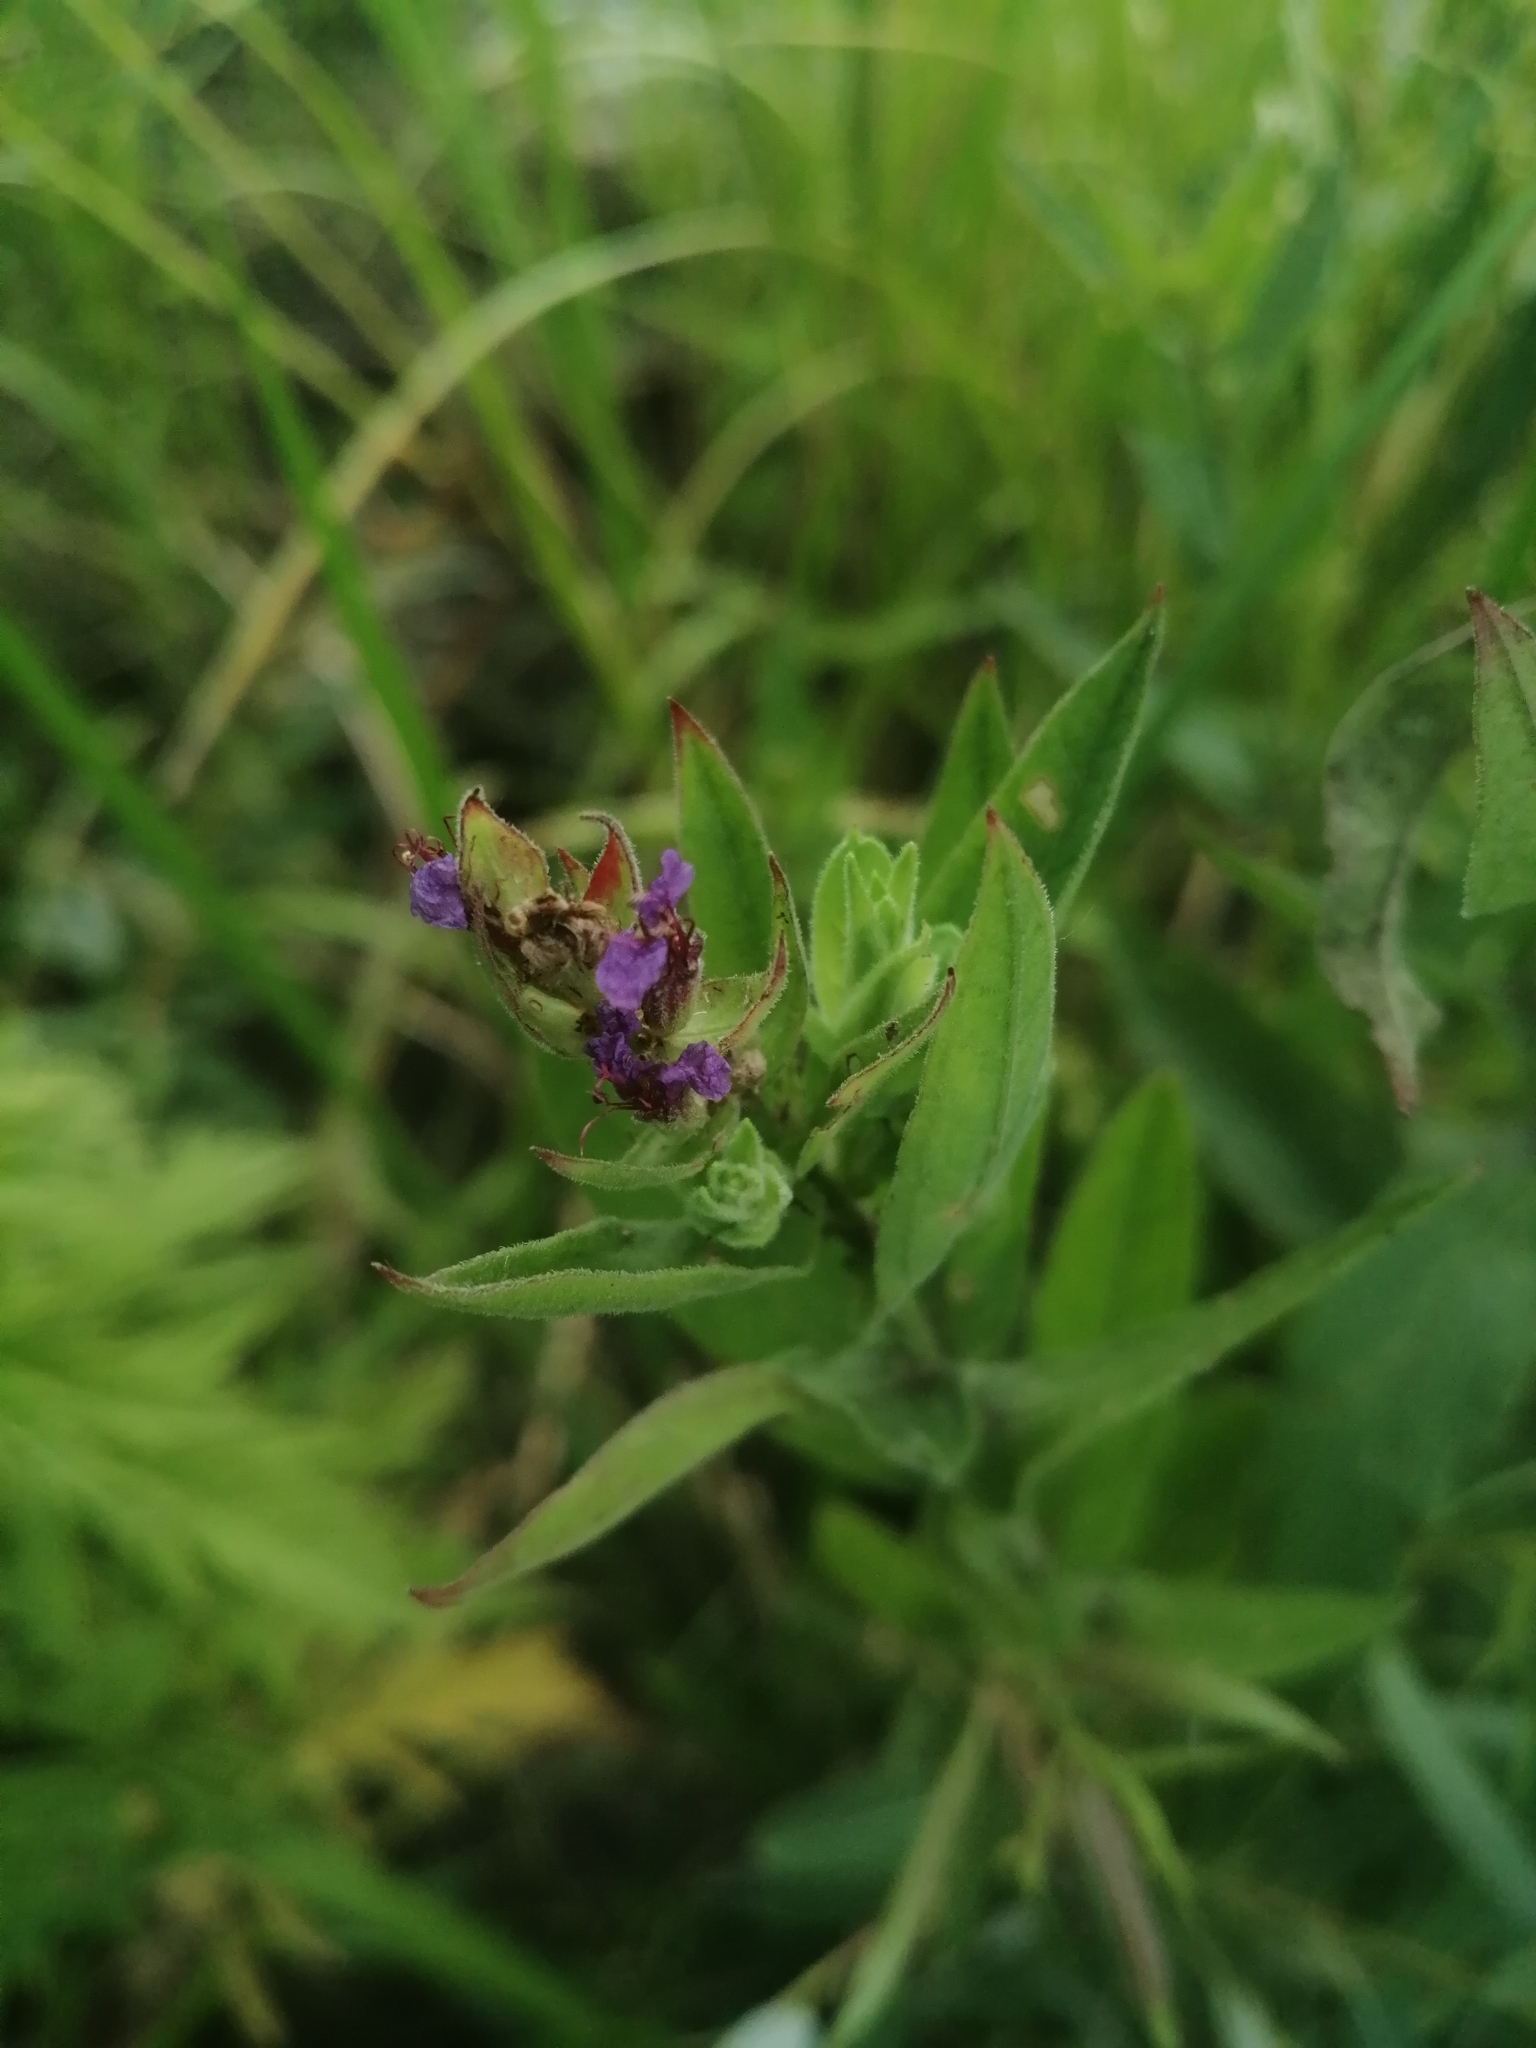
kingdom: Plantae
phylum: Tracheophyta
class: Magnoliopsida
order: Myrtales
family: Lythraceae
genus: Lythrum
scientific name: Lythrum salicaria
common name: Purple loosestrife
